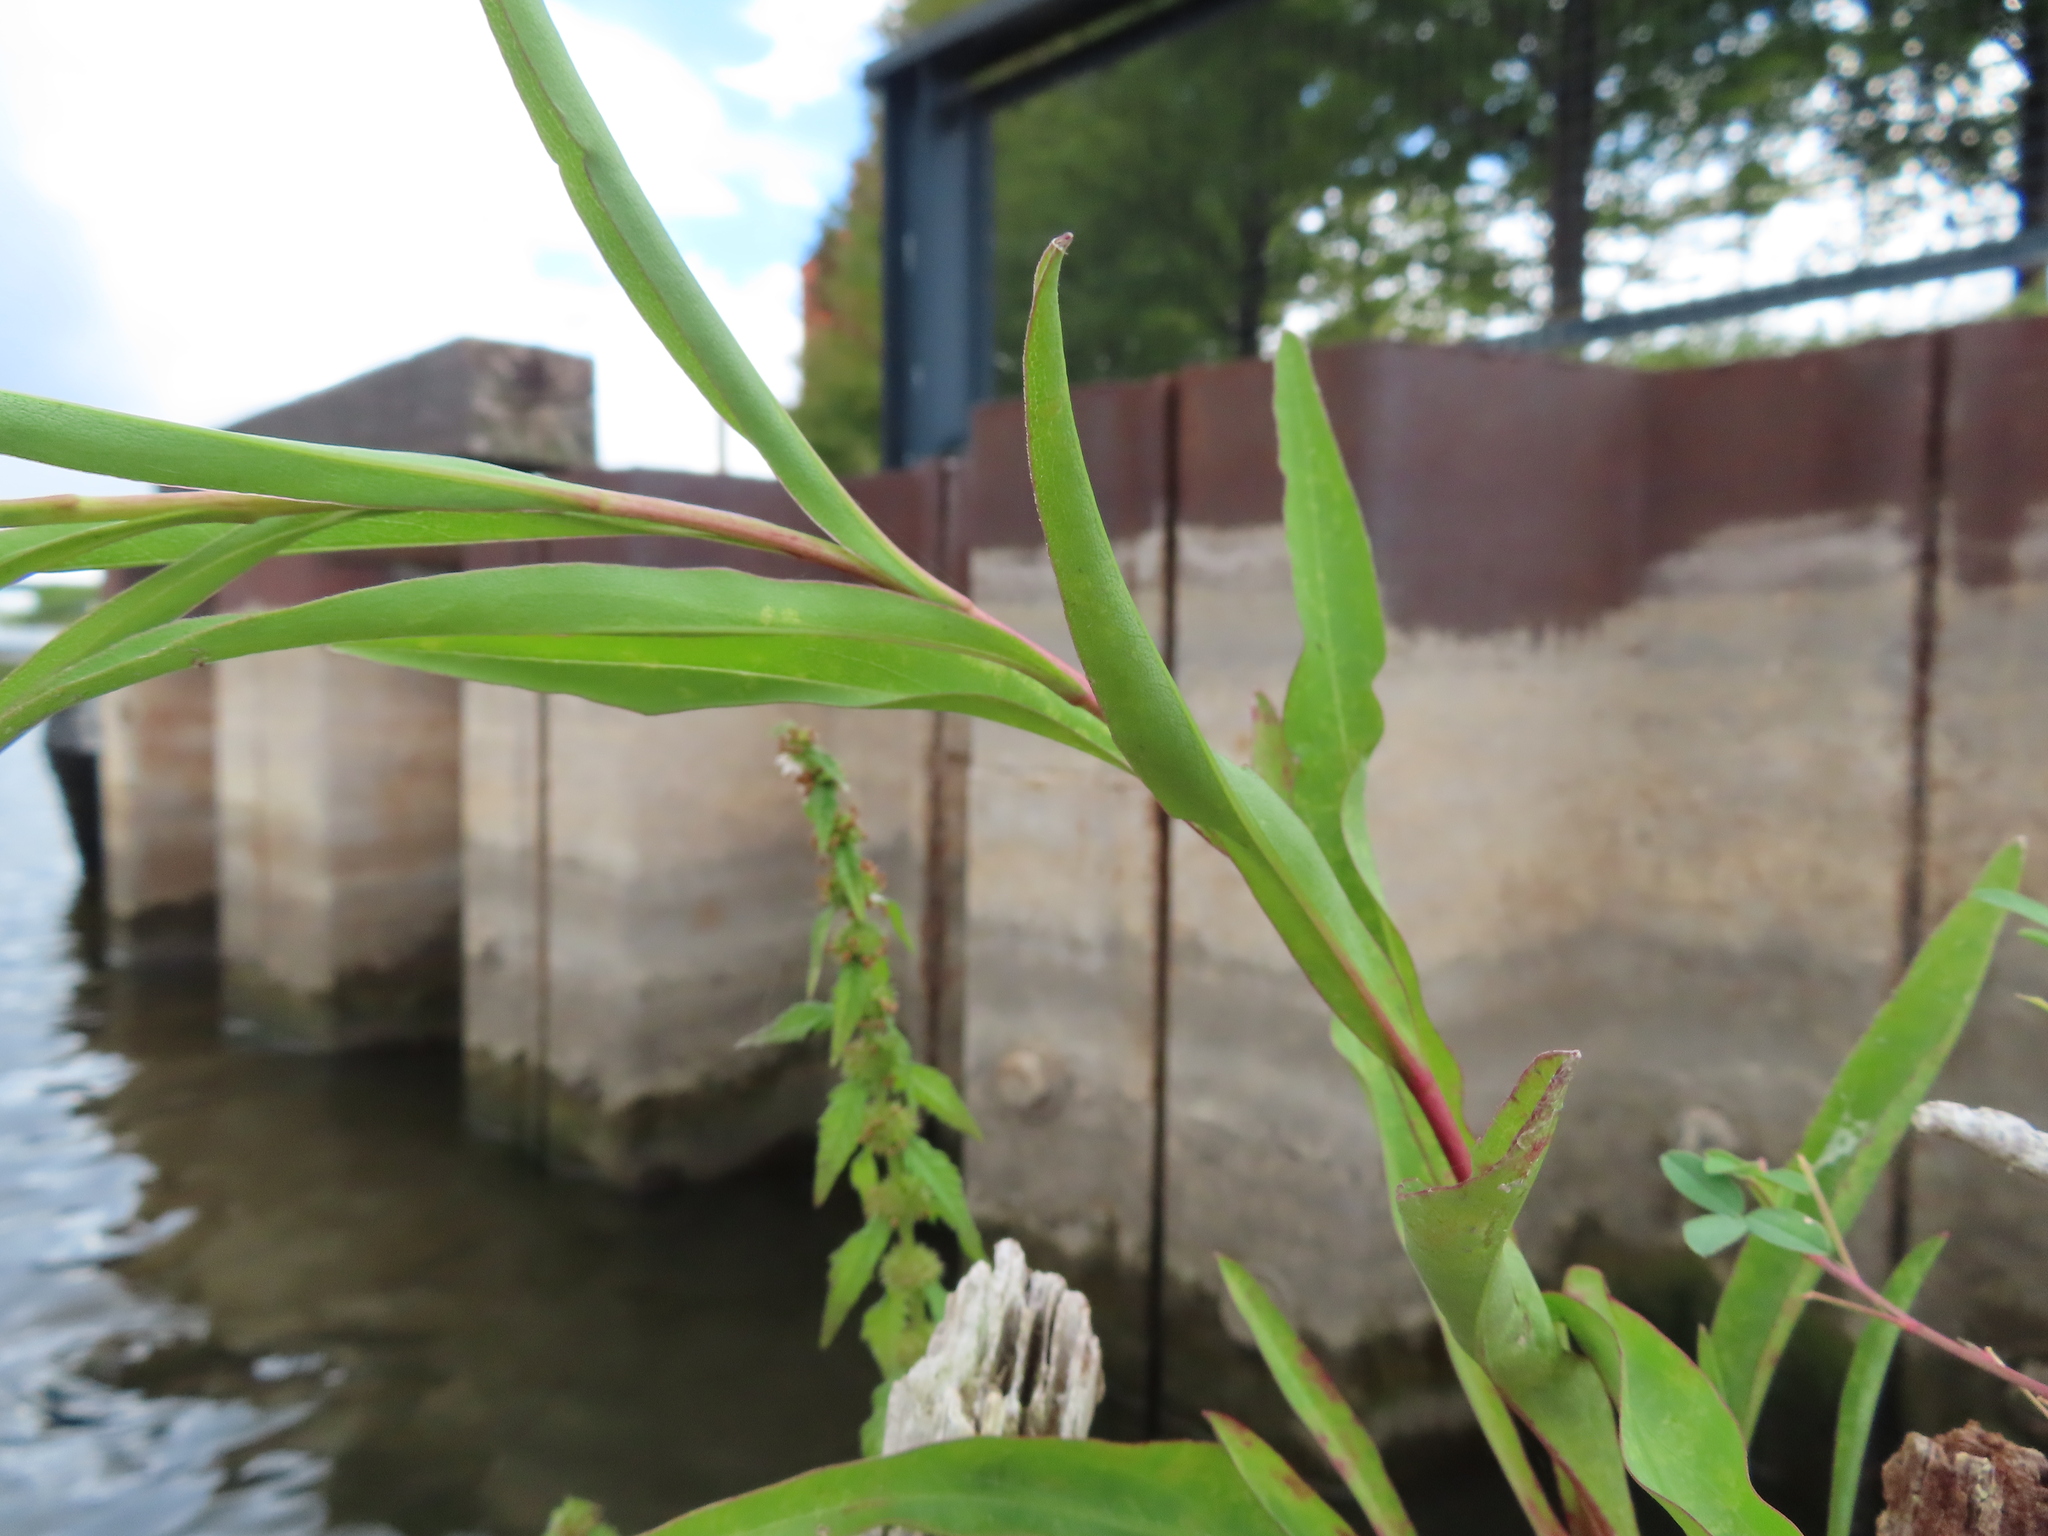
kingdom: Plantae
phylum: Tracheophyta
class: Magnoliopsida
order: Asterales
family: Asteraceae
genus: Solidago
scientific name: Solidago sempervirens
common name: Salt-marsh goldenrod
